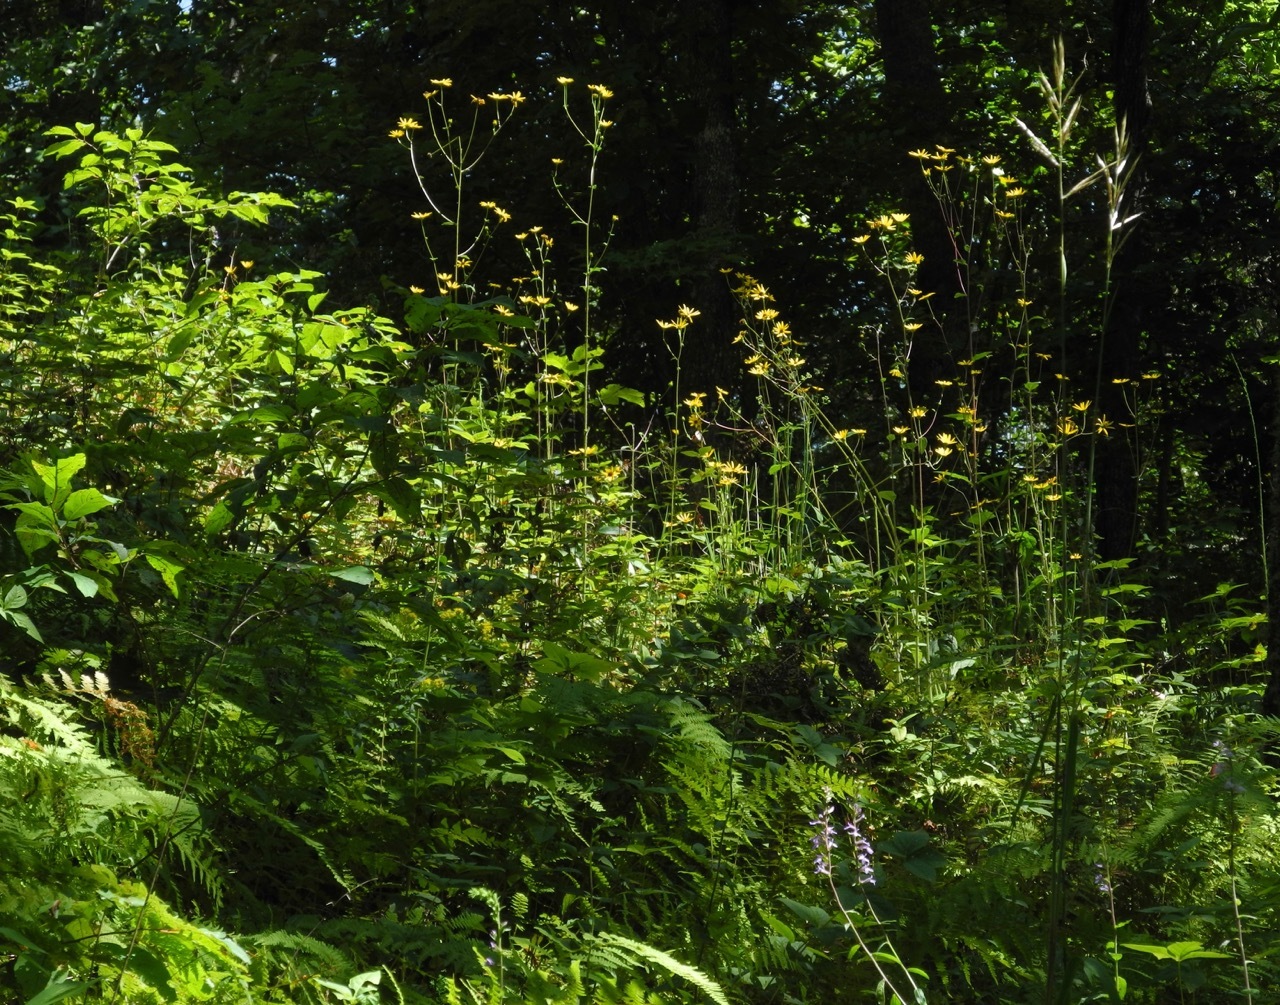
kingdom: Plantae
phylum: Tracheophyta
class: Magnoliopsida
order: Asterales
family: Asteraceae
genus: Helianthus
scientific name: Helianthus atrorubens
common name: Dark-eyed sunflower
